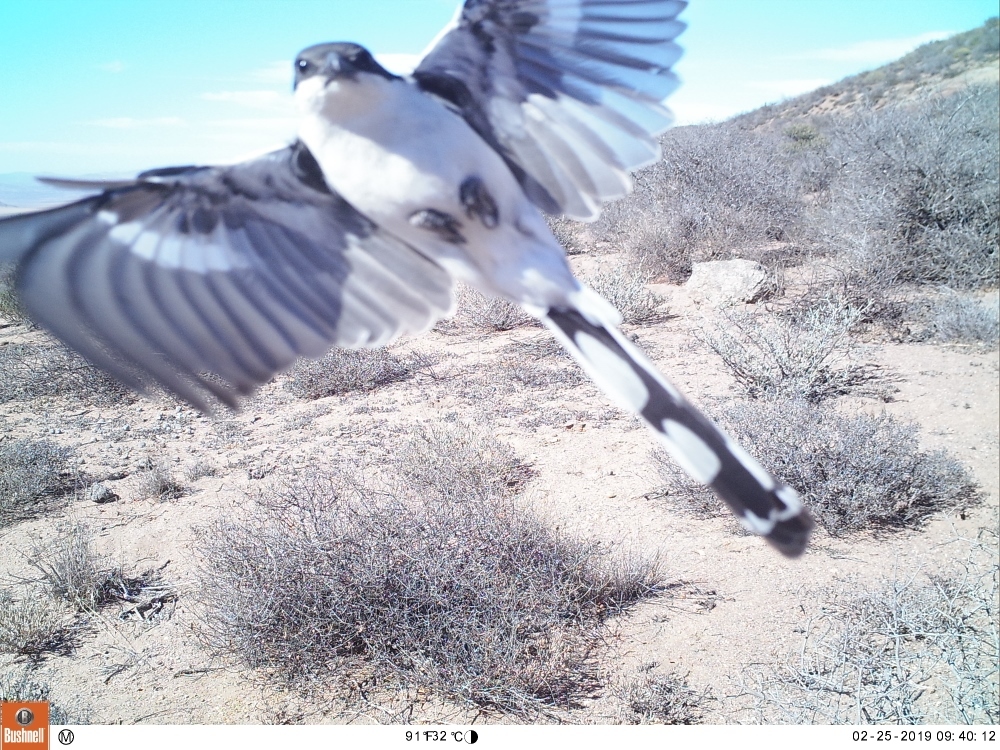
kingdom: Animalia
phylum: Chordata
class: Aves
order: Passeriformes
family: Laniidae
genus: Lanius
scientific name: Lanius collaris
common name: Southern fiscal
